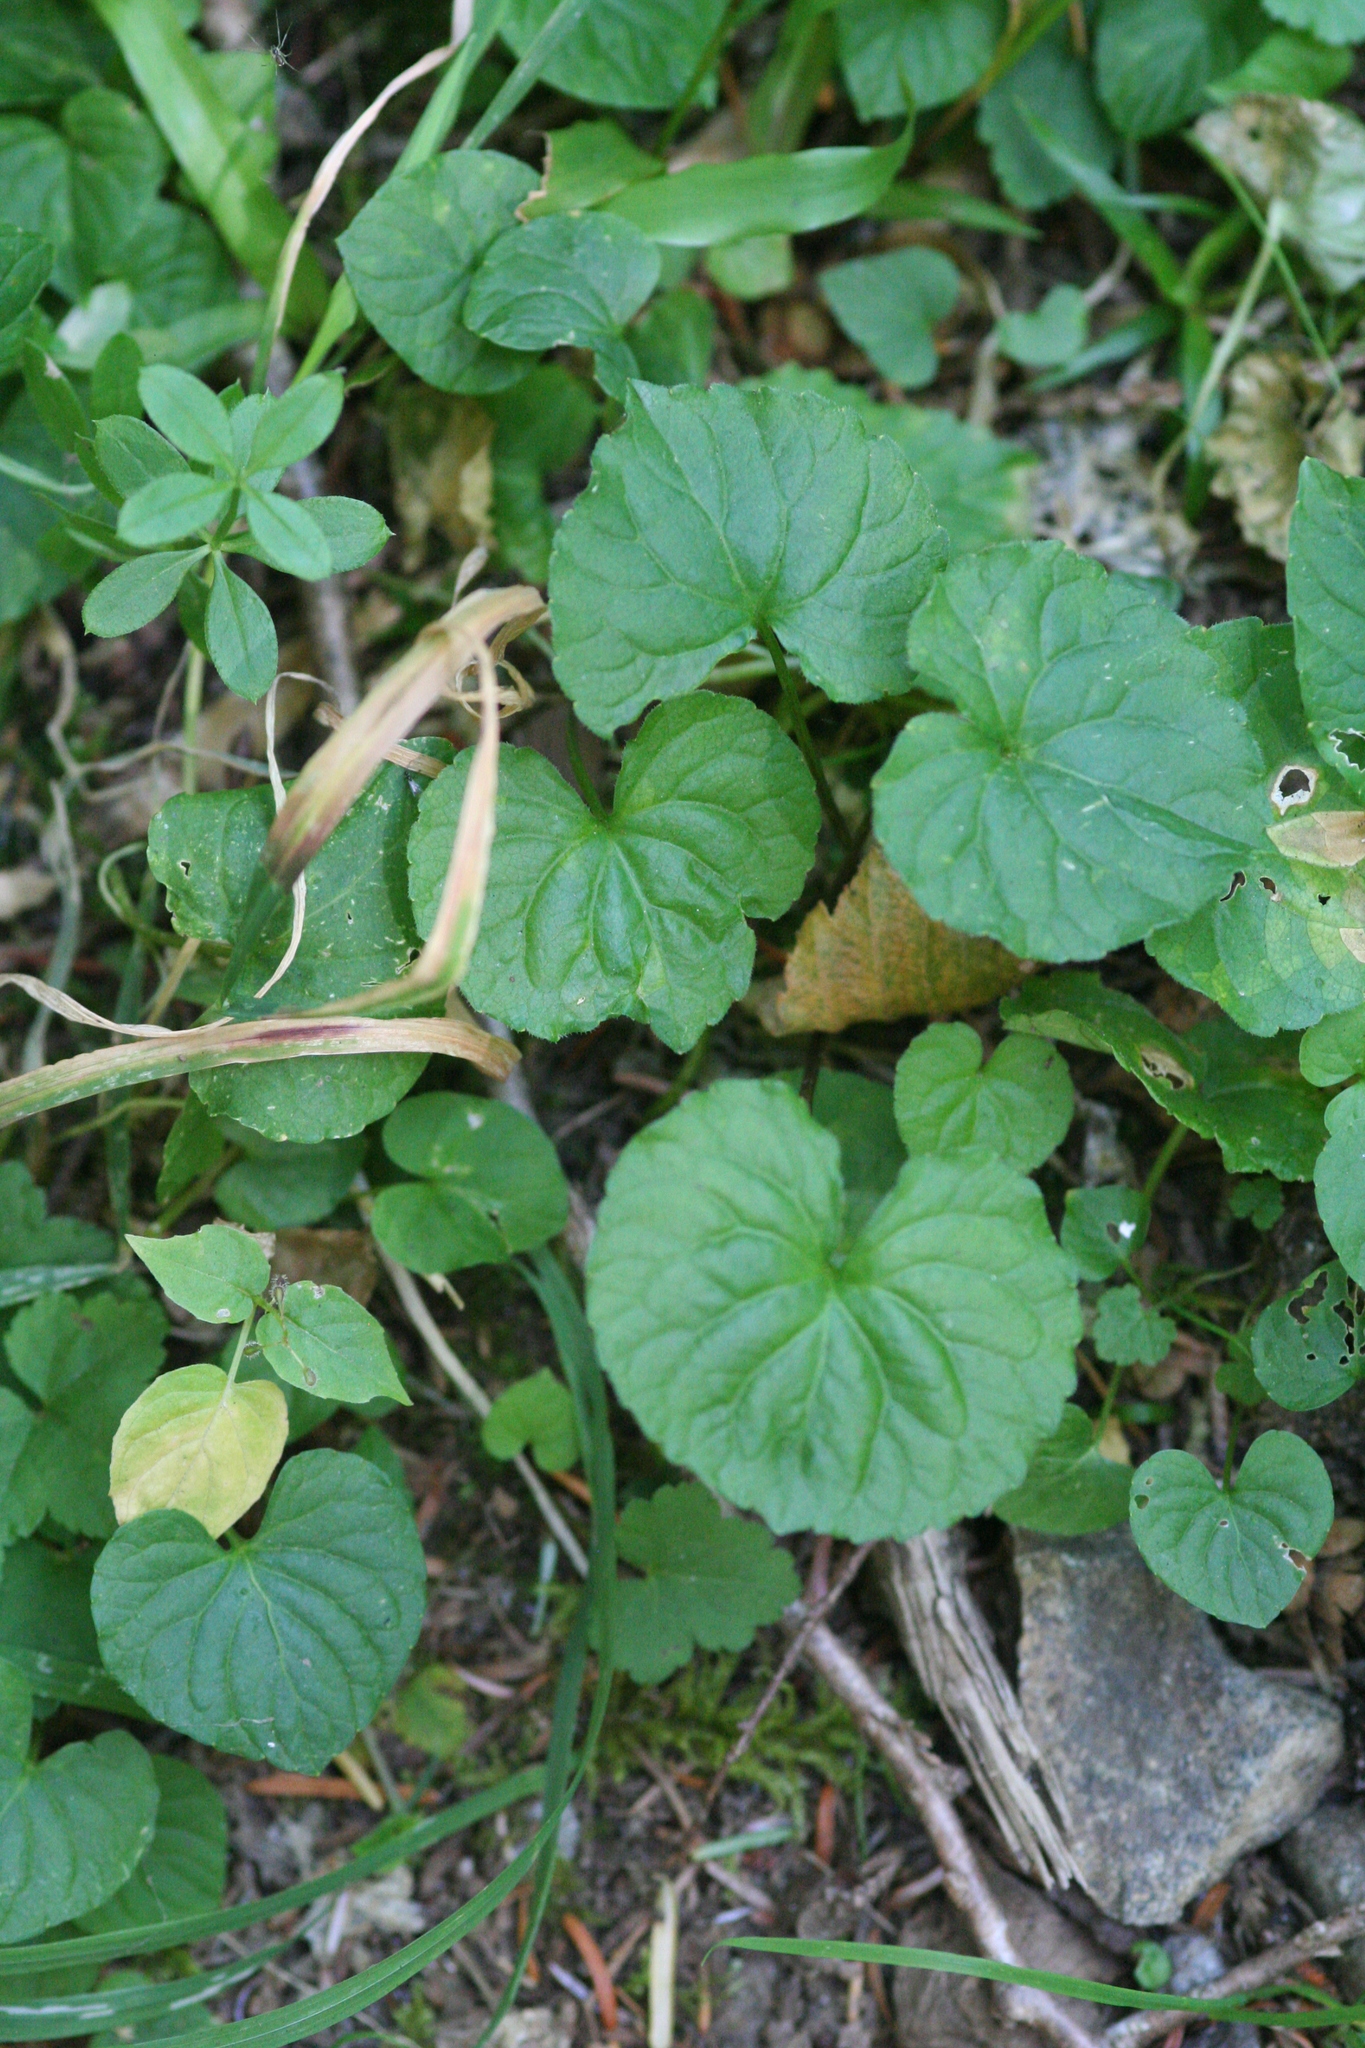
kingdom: Plantae
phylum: Tracheophyta
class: Magnoliopsida
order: Malpighiales
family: Violaceae
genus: Viola
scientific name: Viola glabella
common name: Stream violet
